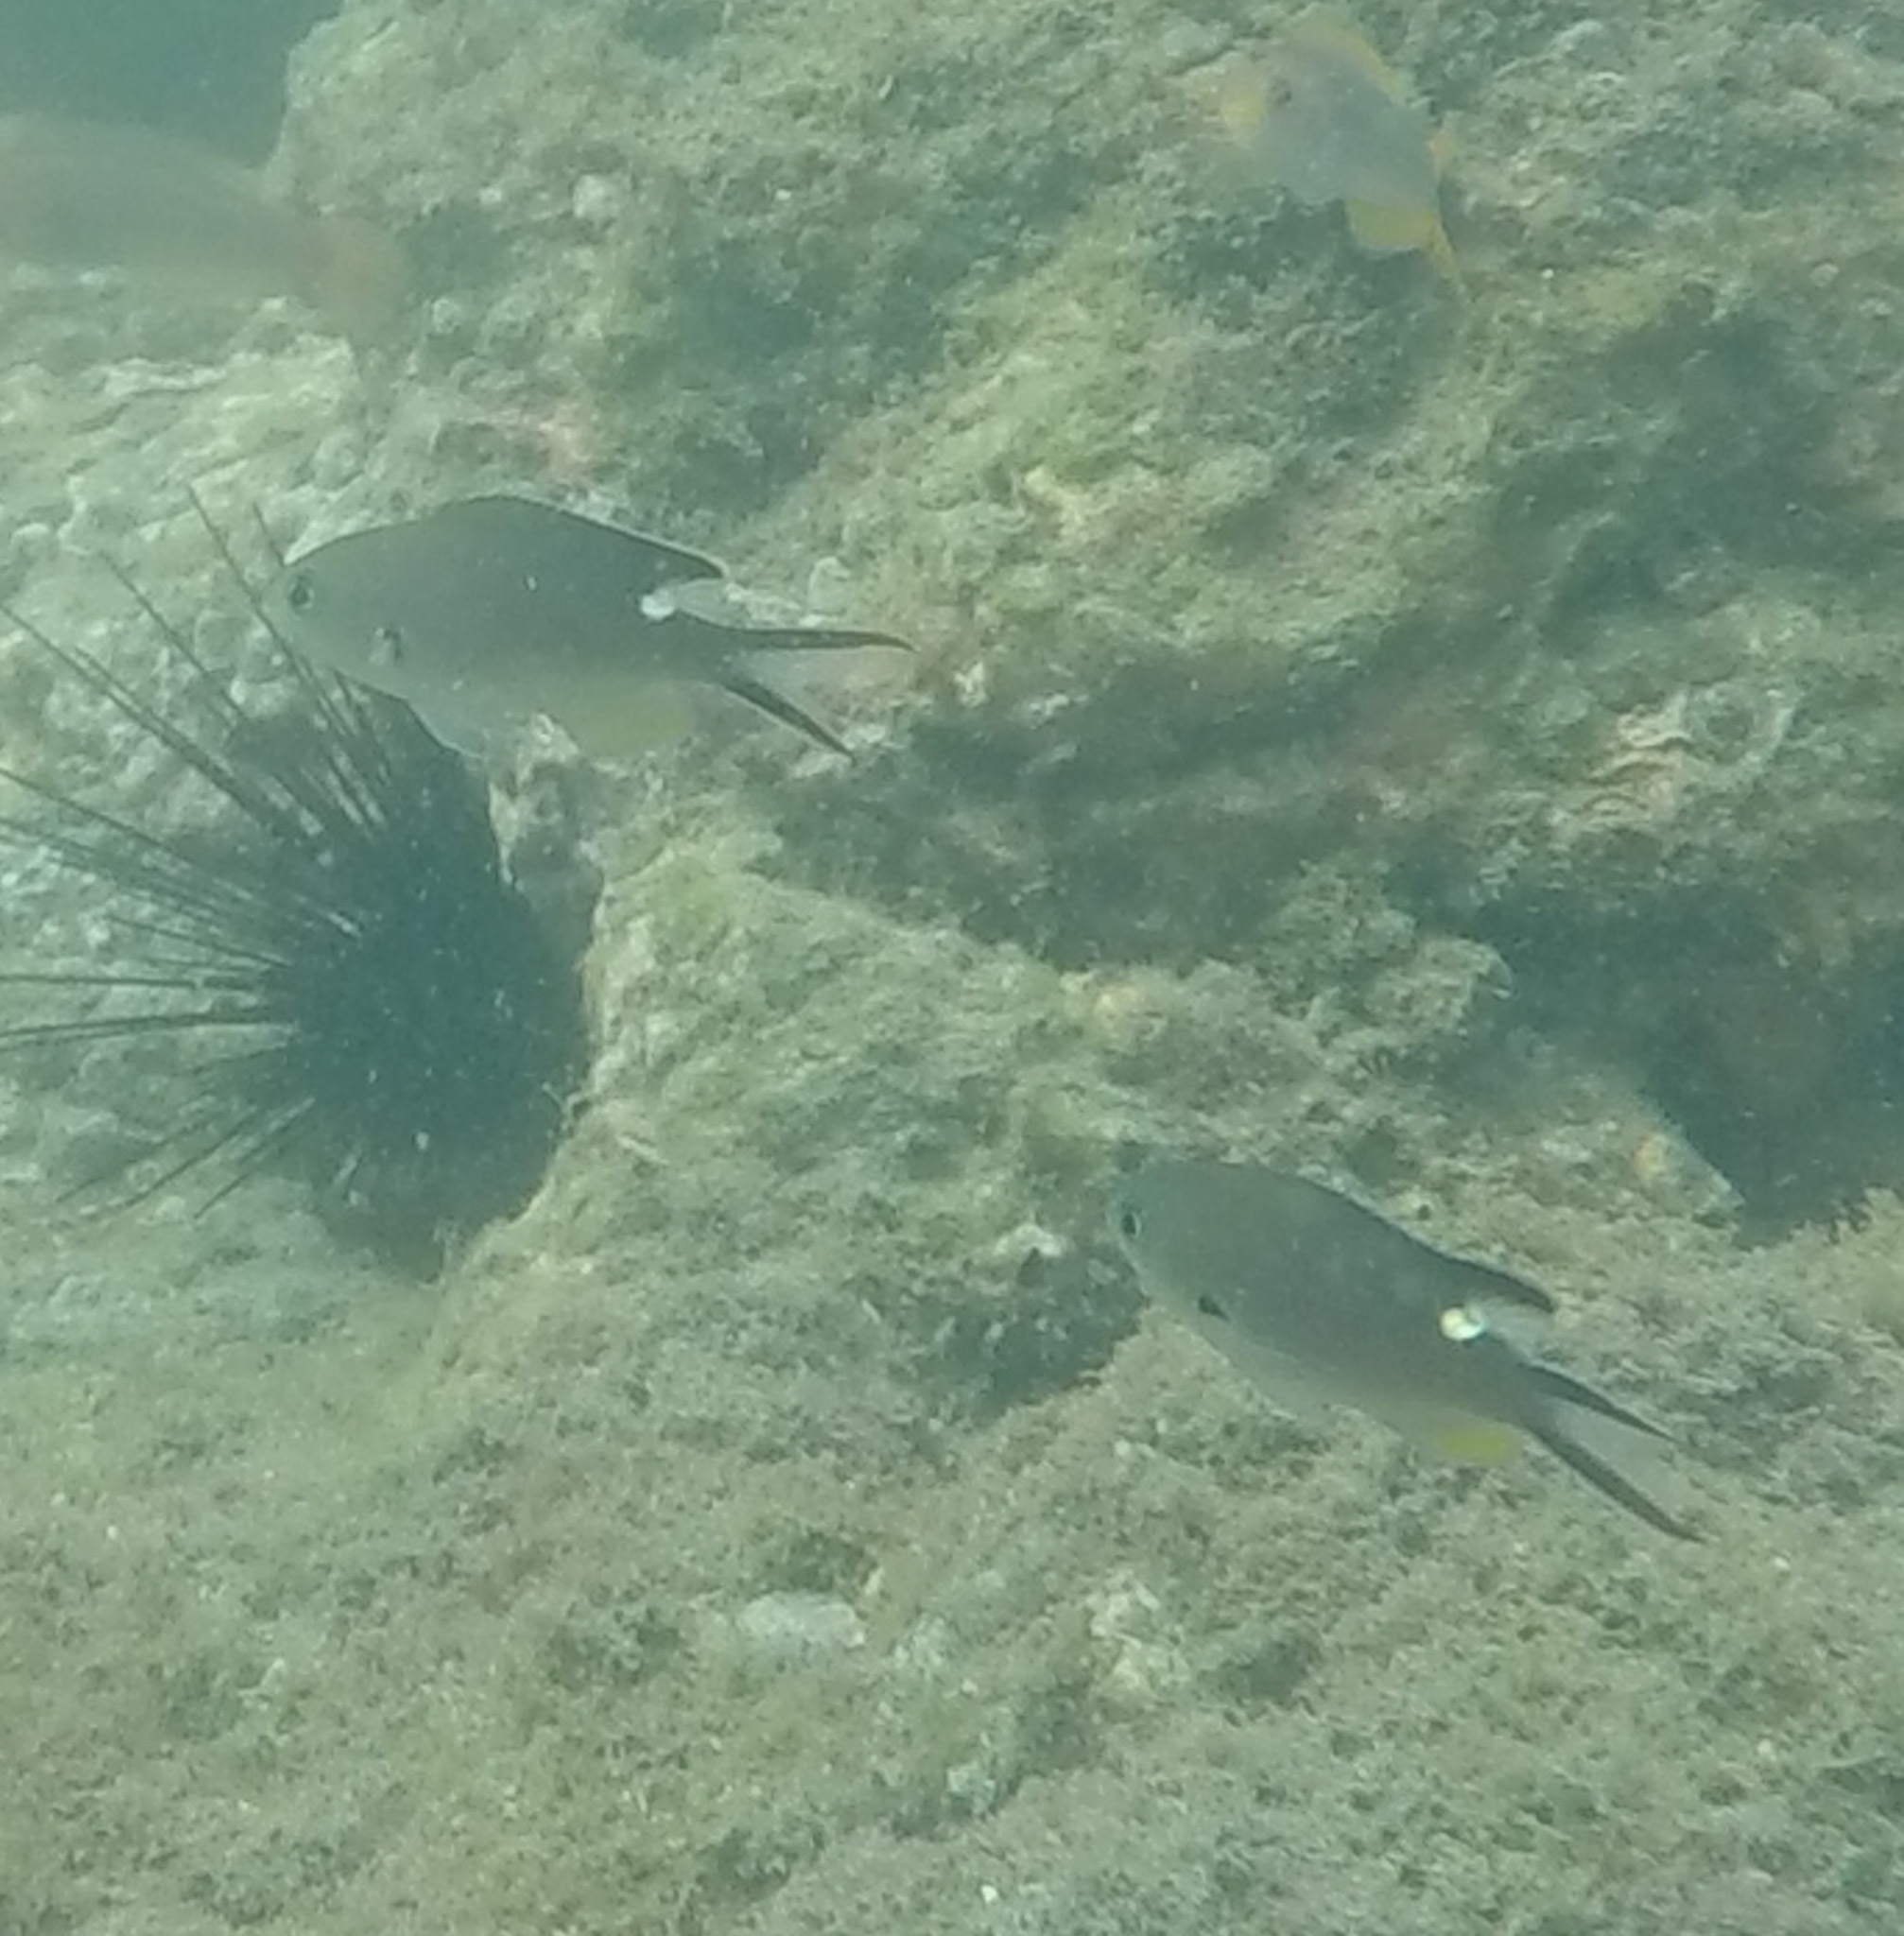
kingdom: Animalia
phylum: Chordata
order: Perciformes
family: Pomacentridae
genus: Chromis
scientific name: Chromis atrilobata
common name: Scissortail damselfish
